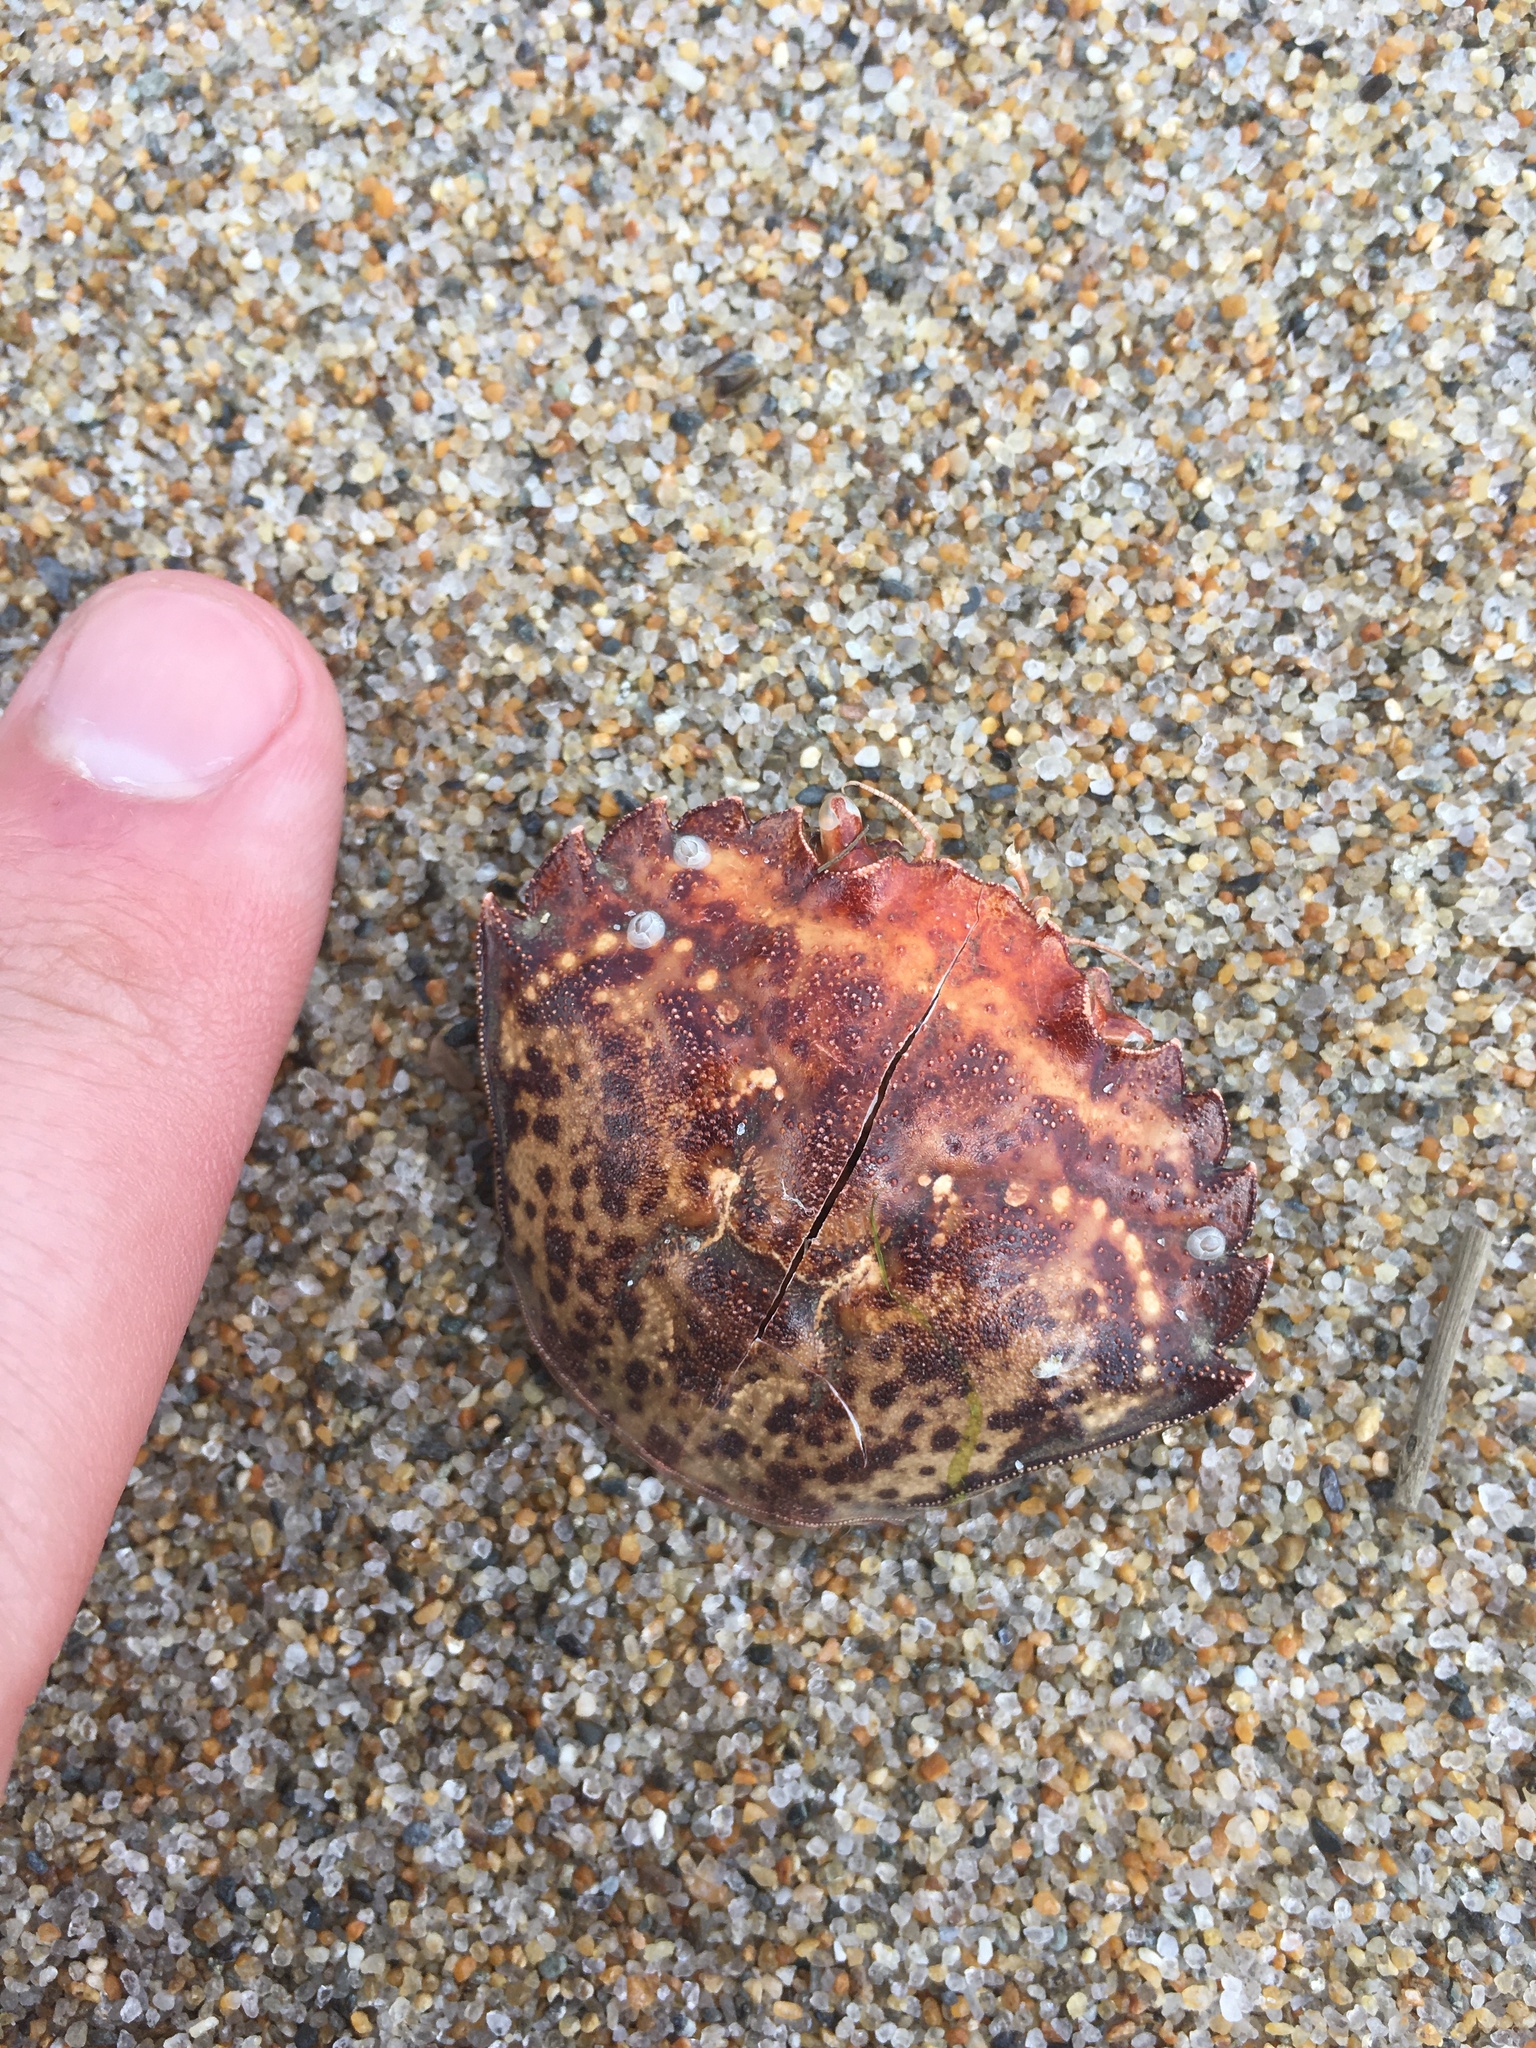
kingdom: Animalia
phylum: Arthropoda
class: Malacostraca
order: Decapoda
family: Carcinidae
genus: Carcinus
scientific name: Carcinus maenas
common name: European green crab
